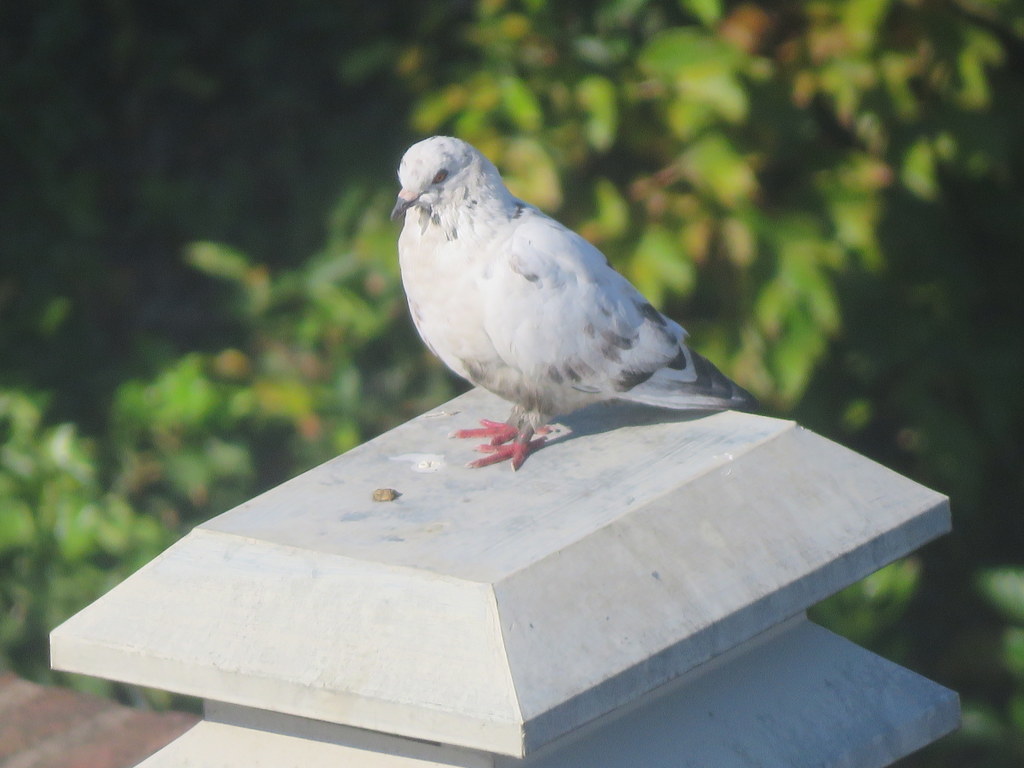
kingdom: Animalia
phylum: Chordata
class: Aves
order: Columbiformes
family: Columbidae
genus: Columba
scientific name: Columba livia
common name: Rock pigeon
